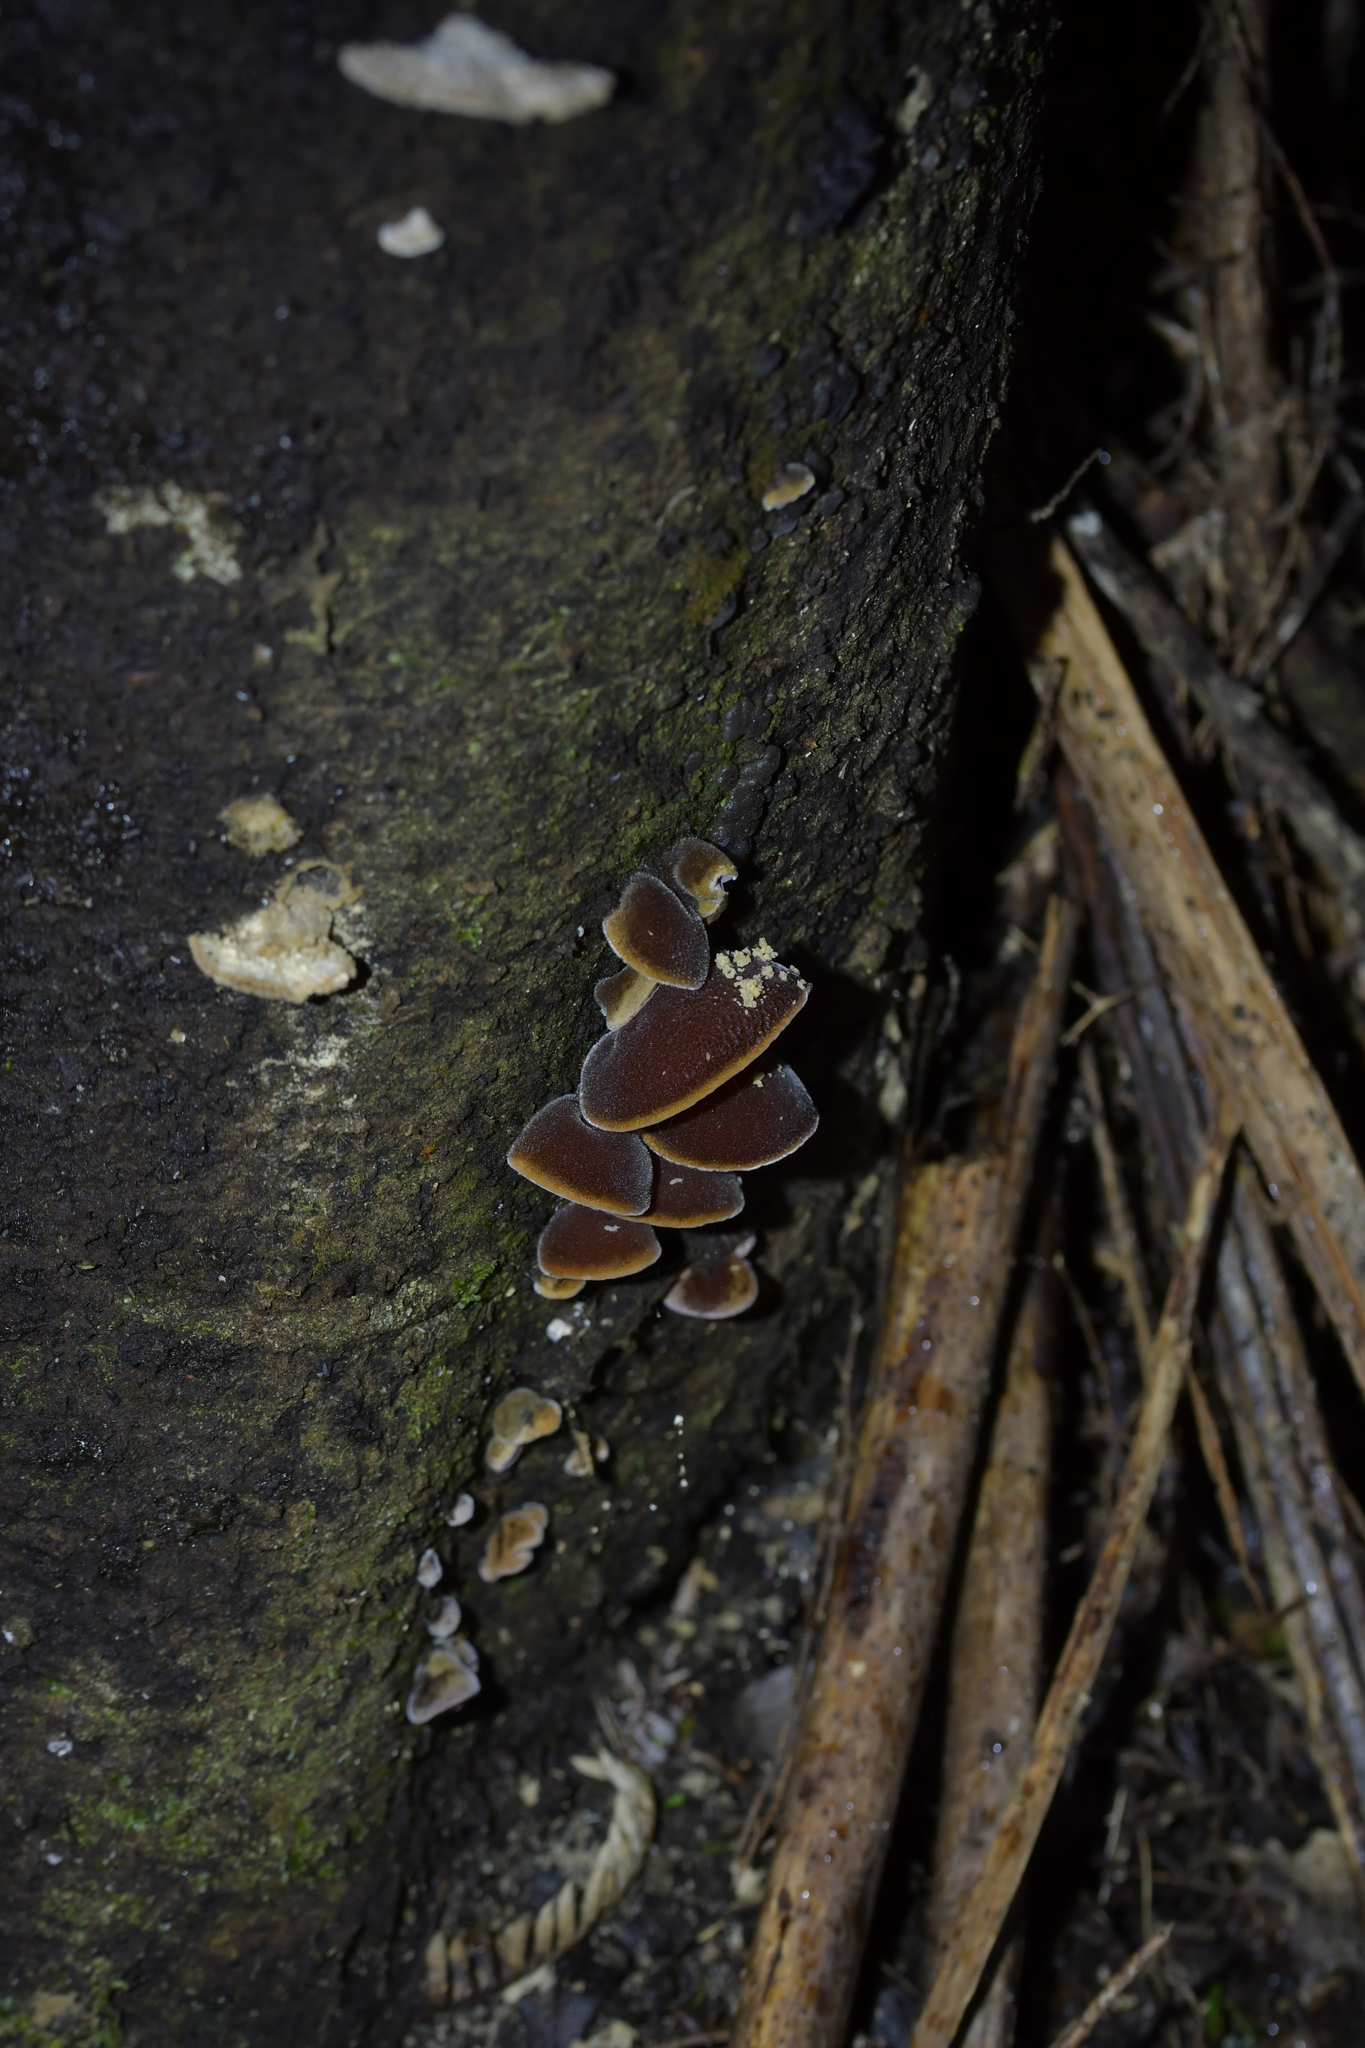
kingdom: Fungi
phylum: Basidiomycota
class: Agaricomycetes
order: Auriculariales
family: Auriculariaceae
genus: Auricularia
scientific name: Auricularia cornea
